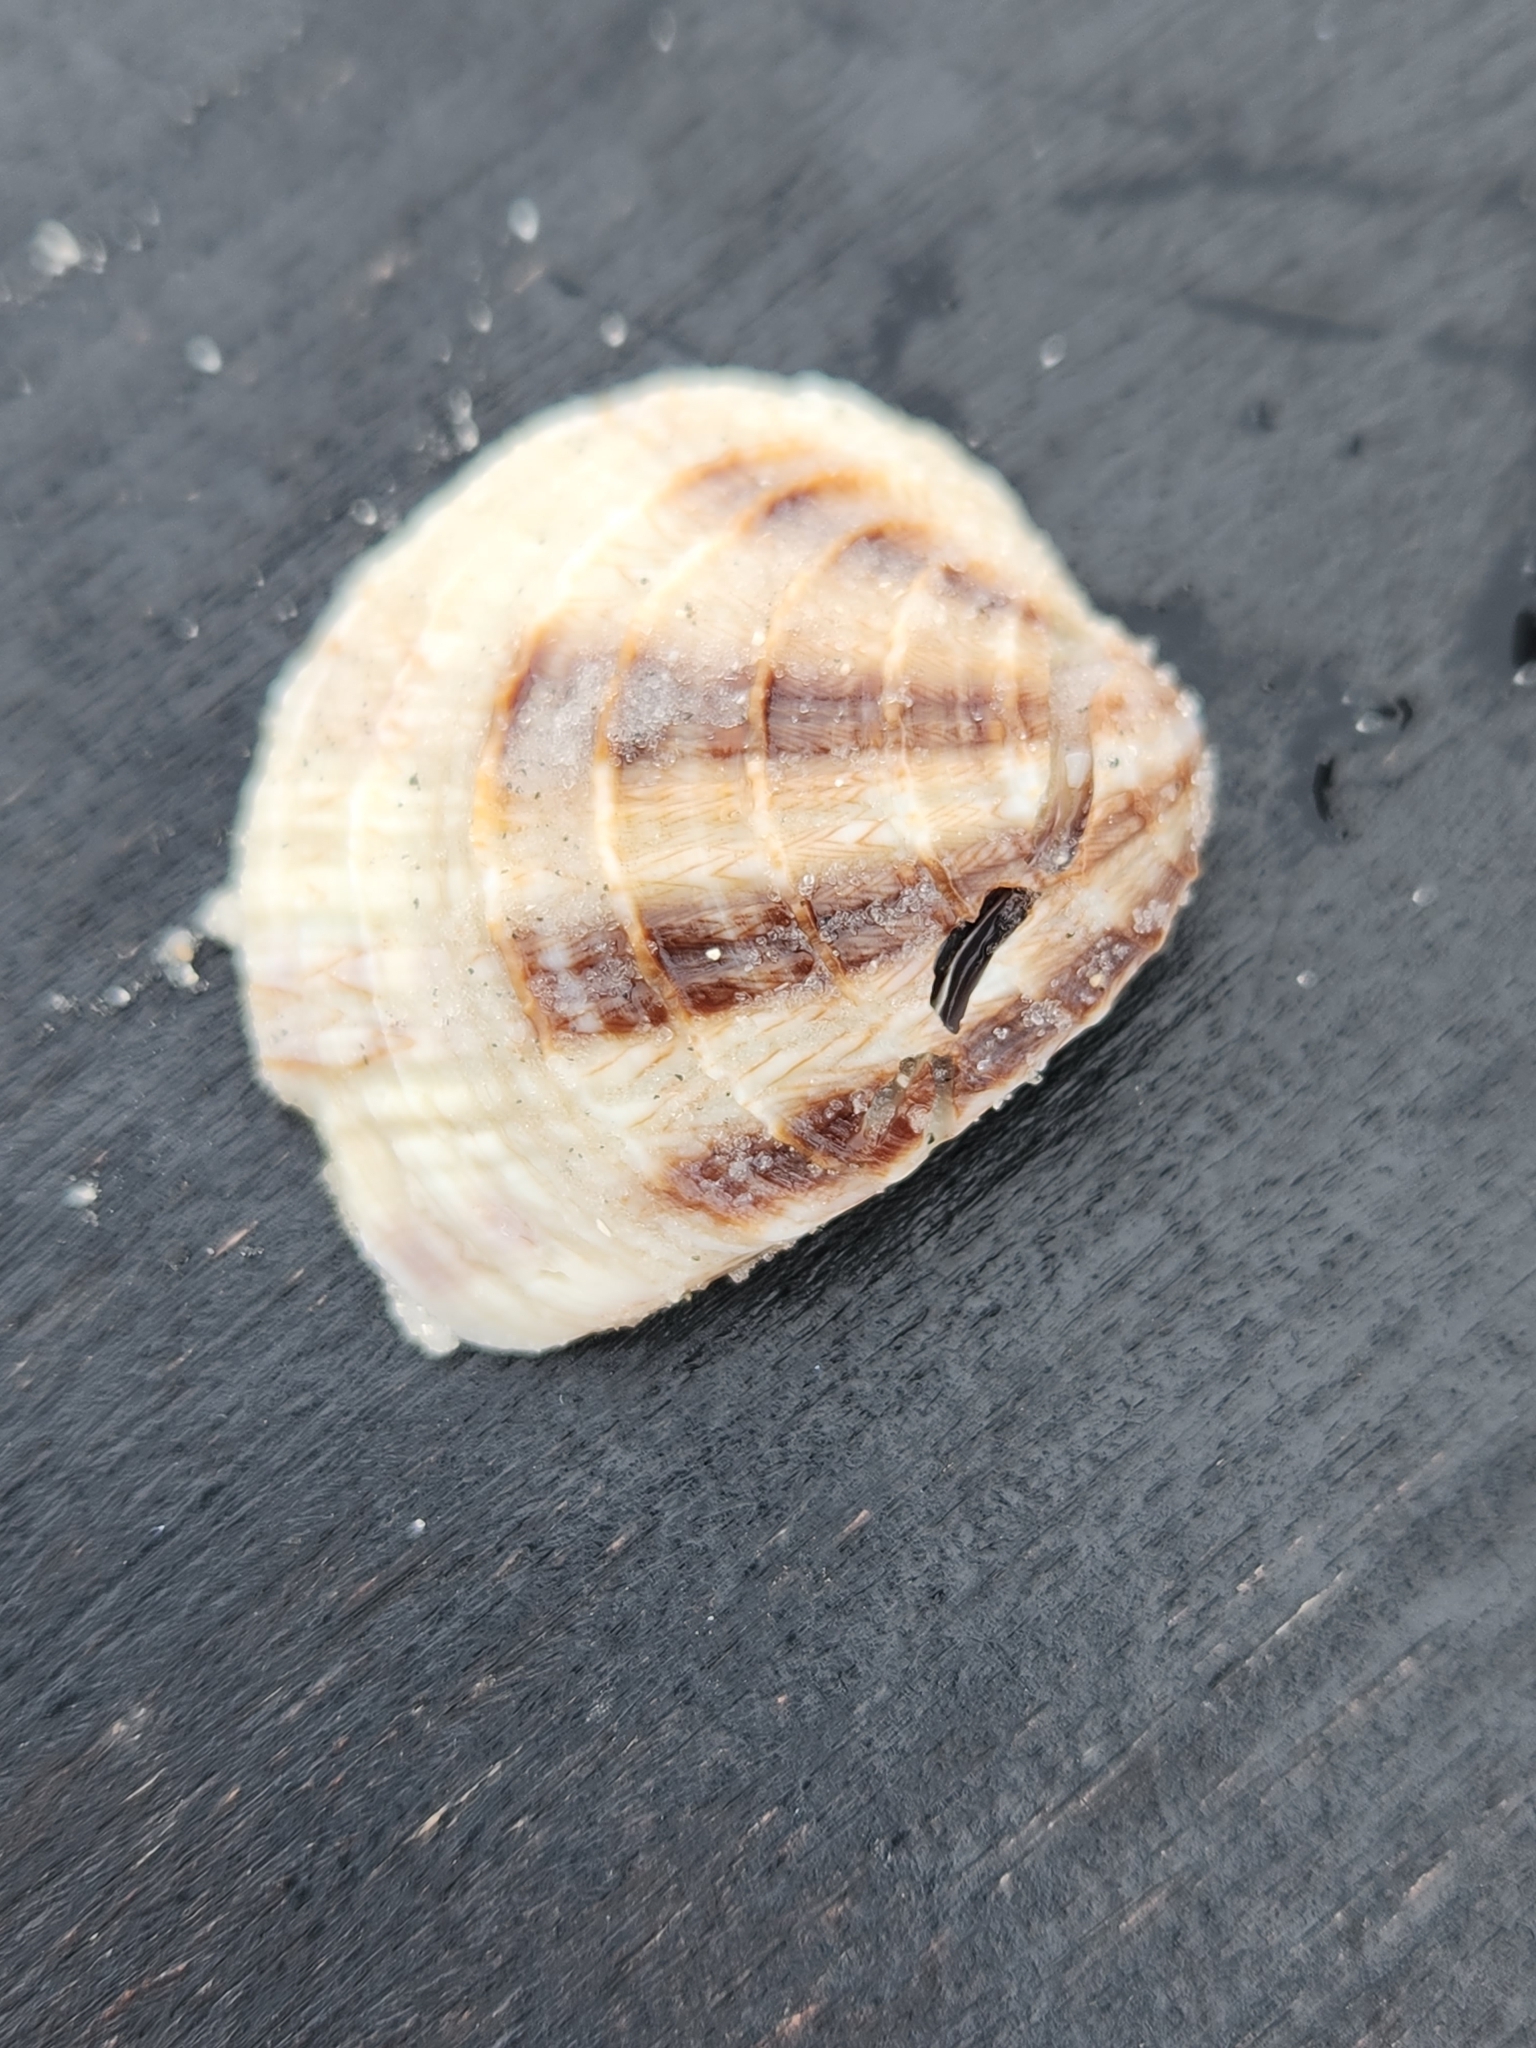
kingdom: Animalia
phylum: Mollusca
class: Bivalvia
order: Venerida
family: Veneridae
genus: Chione
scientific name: Chione elevata
